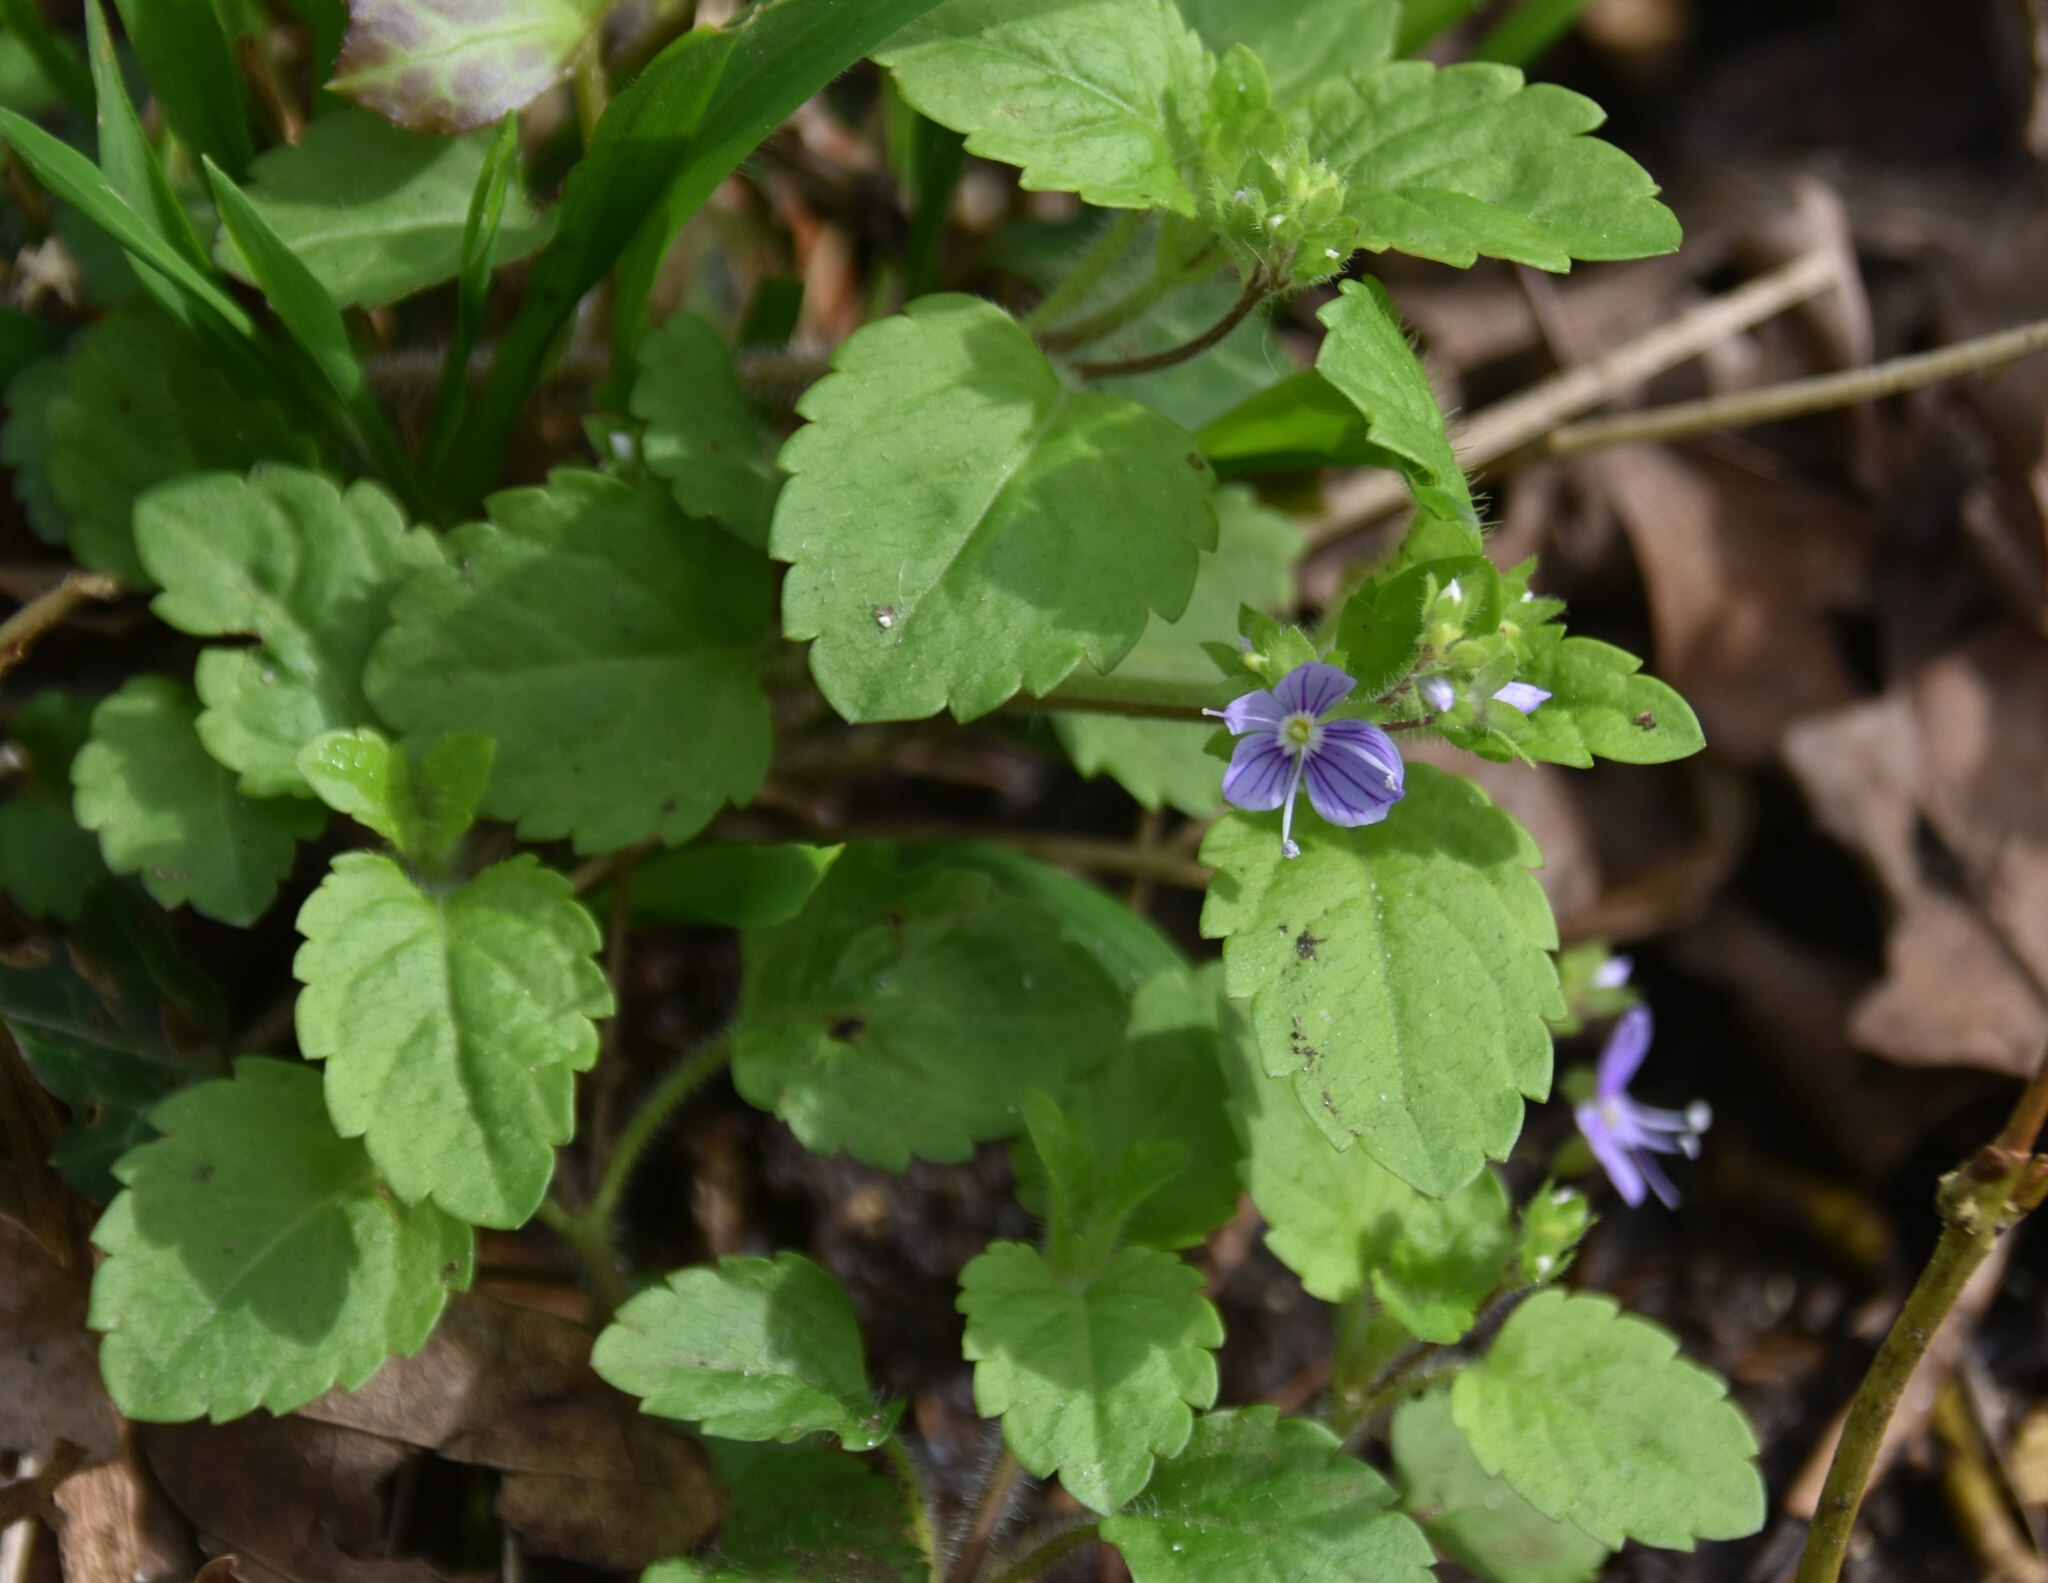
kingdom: Plantae
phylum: Tracheophyta
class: Magnoliopsida
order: Lamiales
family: Plantaginaceae
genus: Veronica
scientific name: Veronica montana
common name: Wood speedwell
